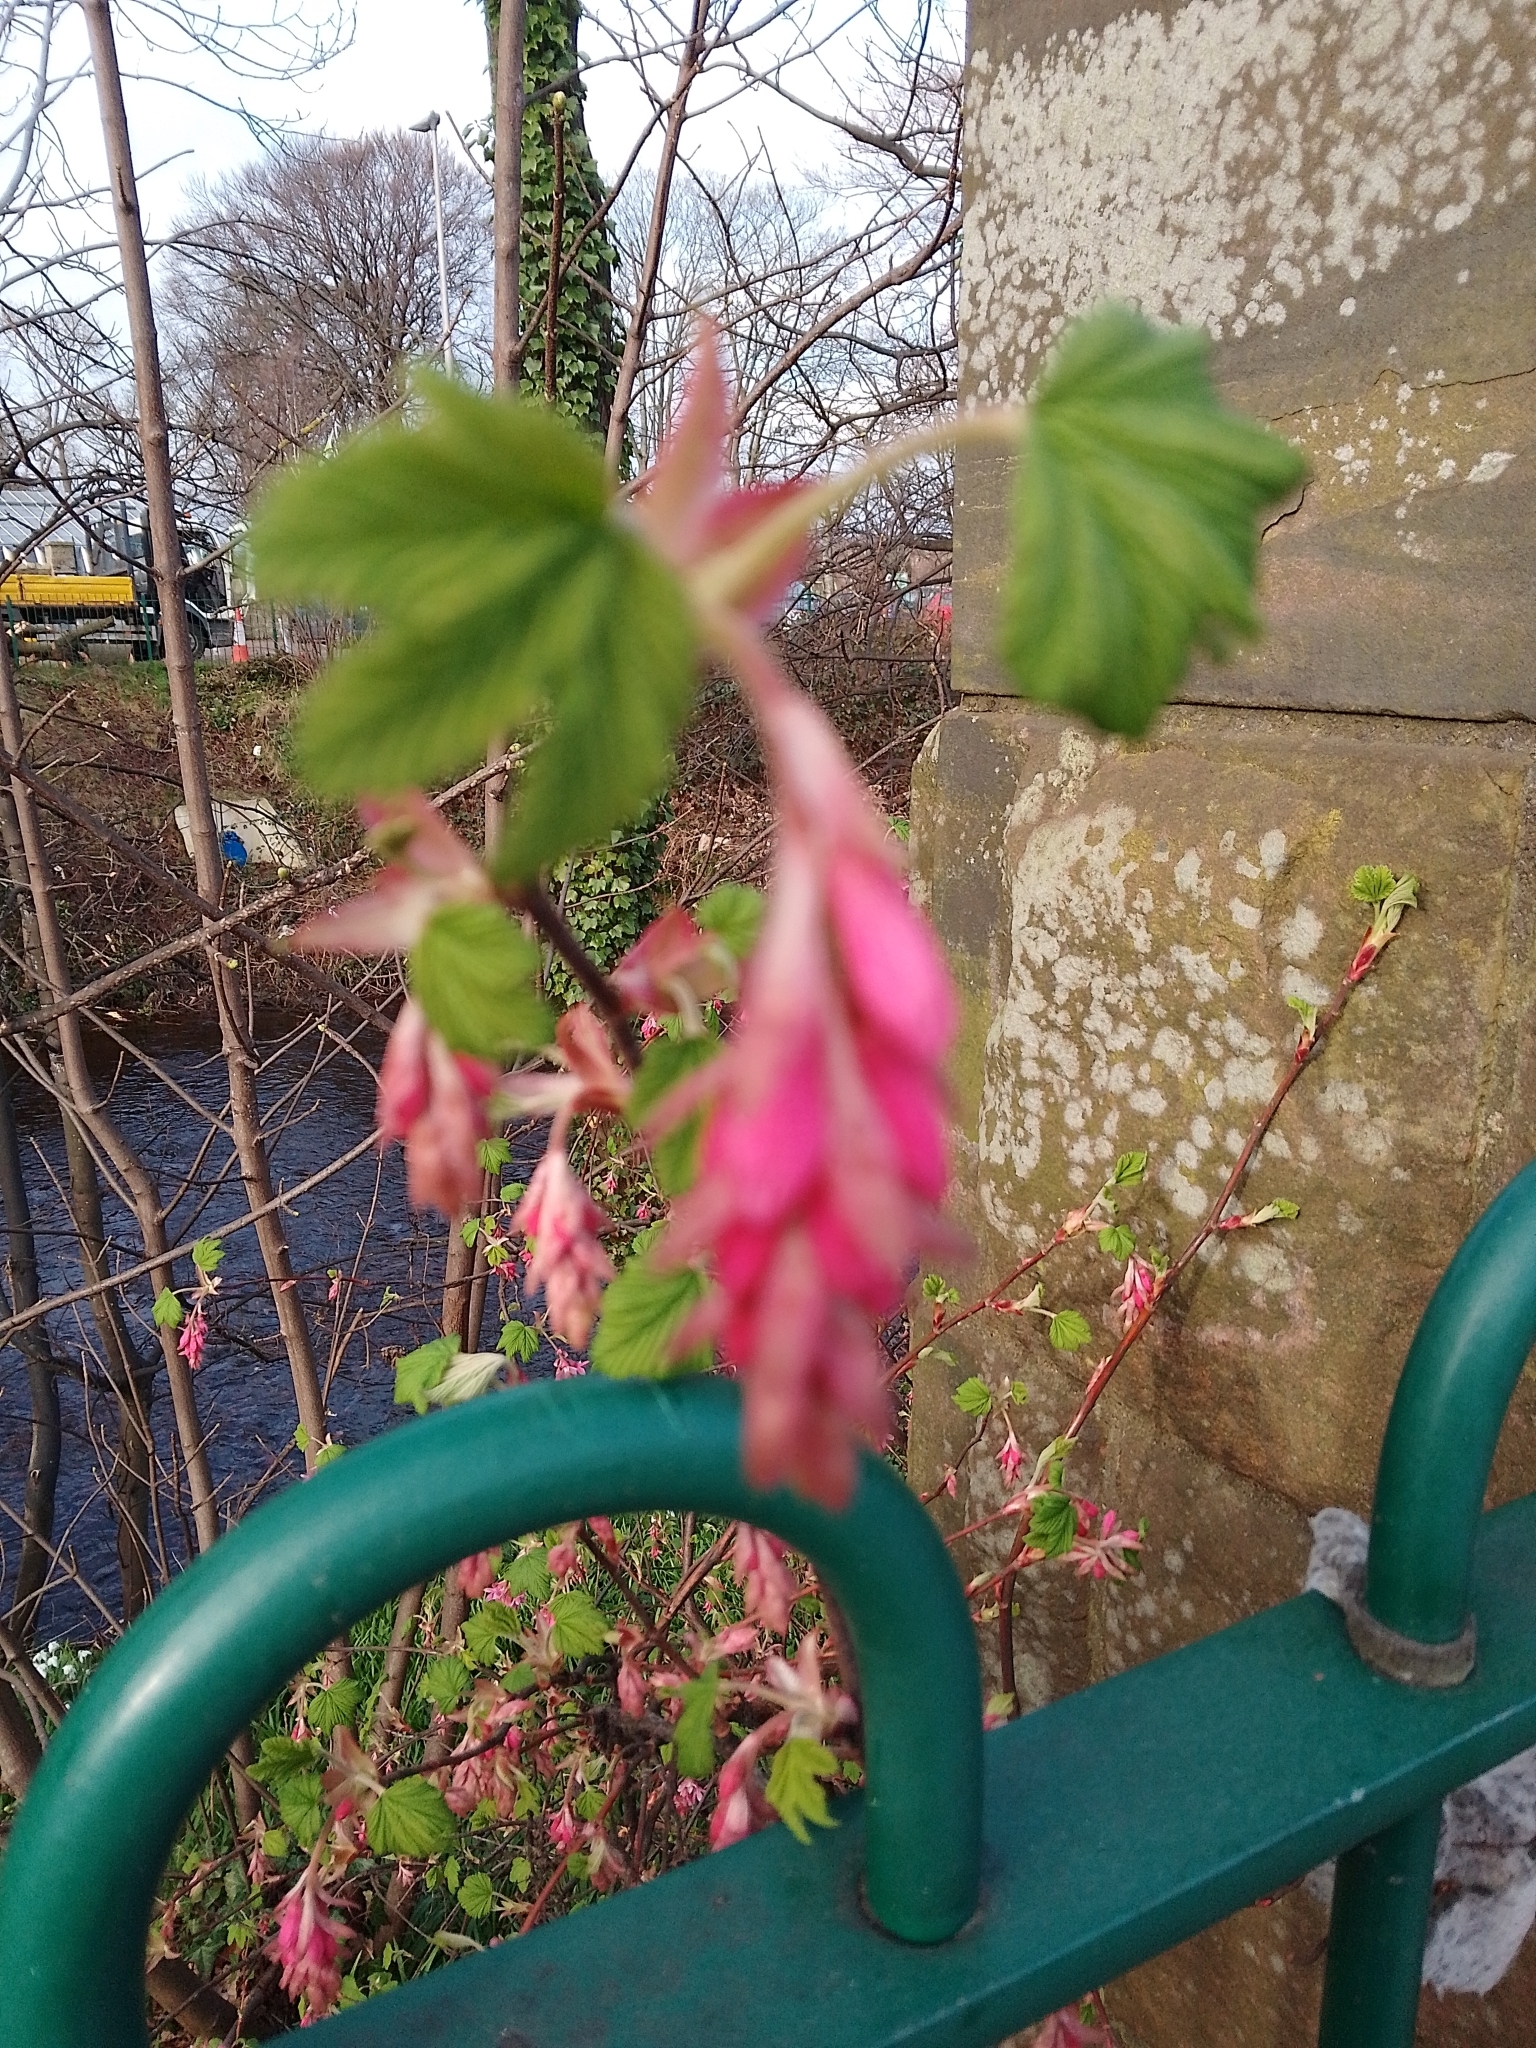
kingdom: Plantae
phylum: Tracheophyta
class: Magnoliopsida
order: Saxifragales
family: Grossulariaceae
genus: Ribes
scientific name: Ribes sanguineum
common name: Flowering currant
